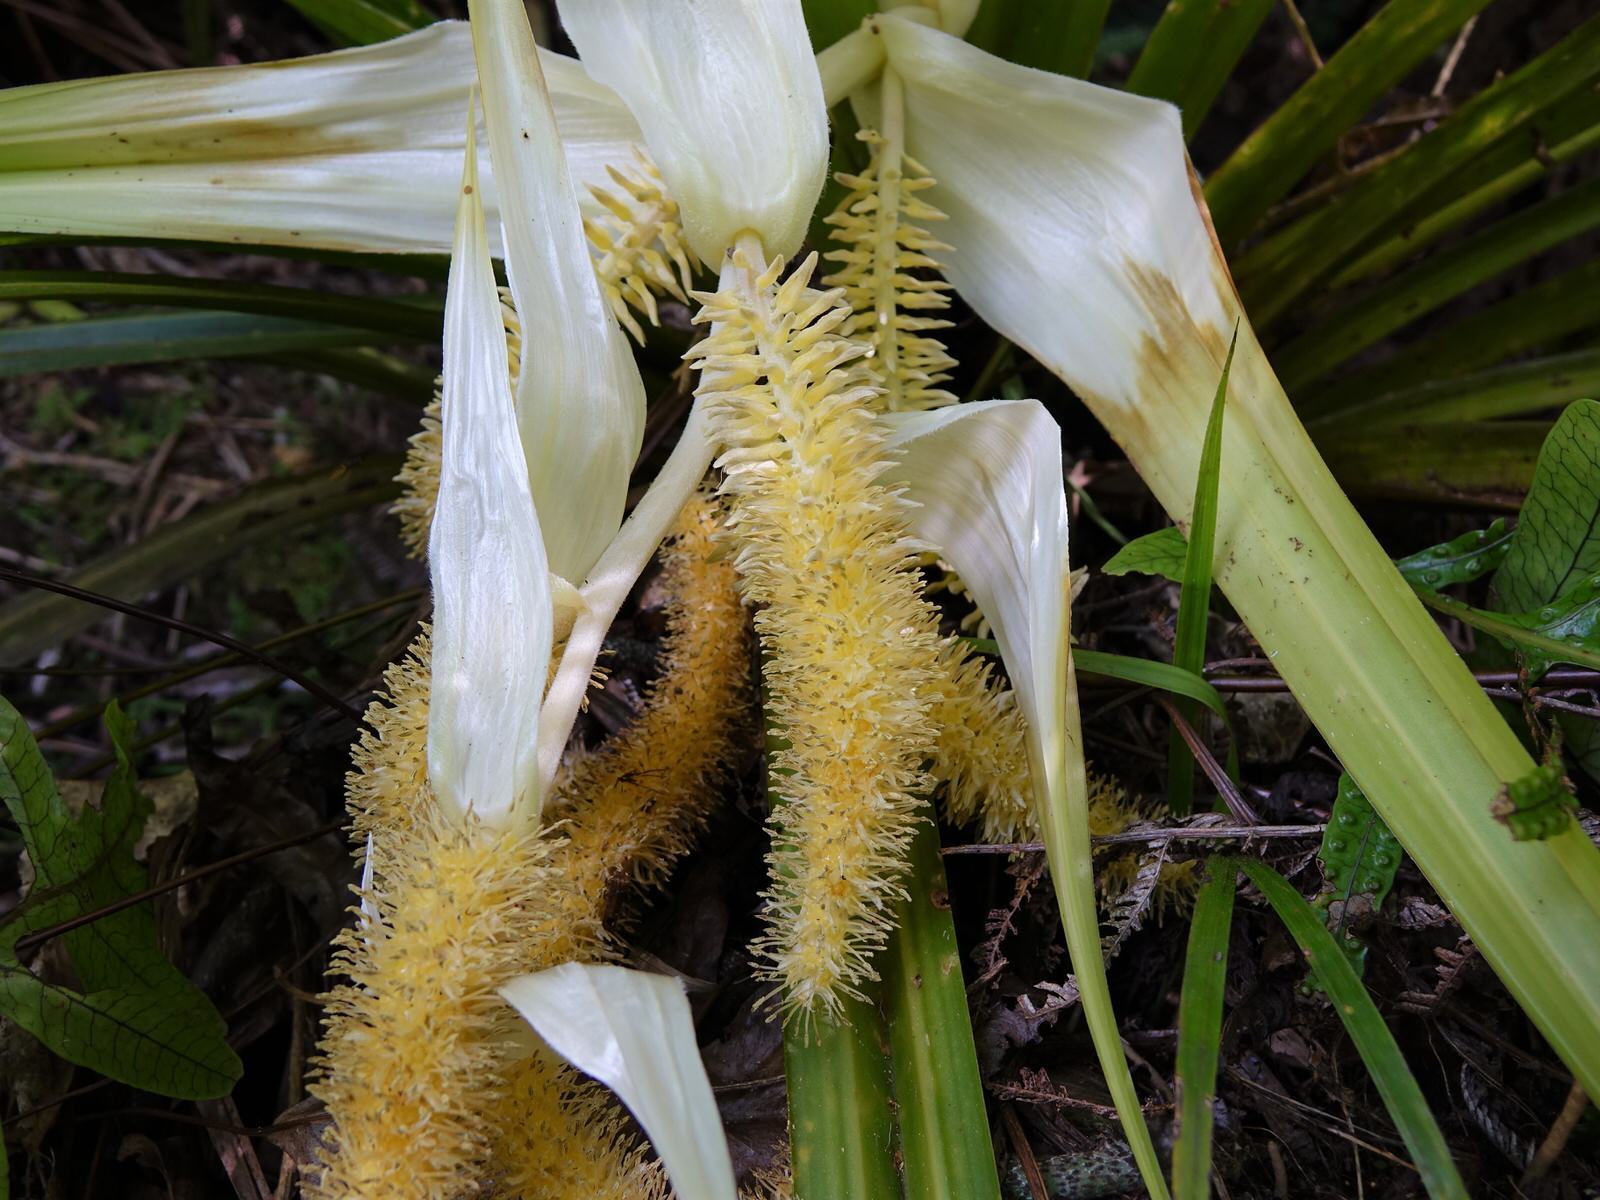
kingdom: Plantae
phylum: Tracheophyta
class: Liliopsida
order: Asparagales
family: Asteliaceae
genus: Astelia
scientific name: Astelia hastata
